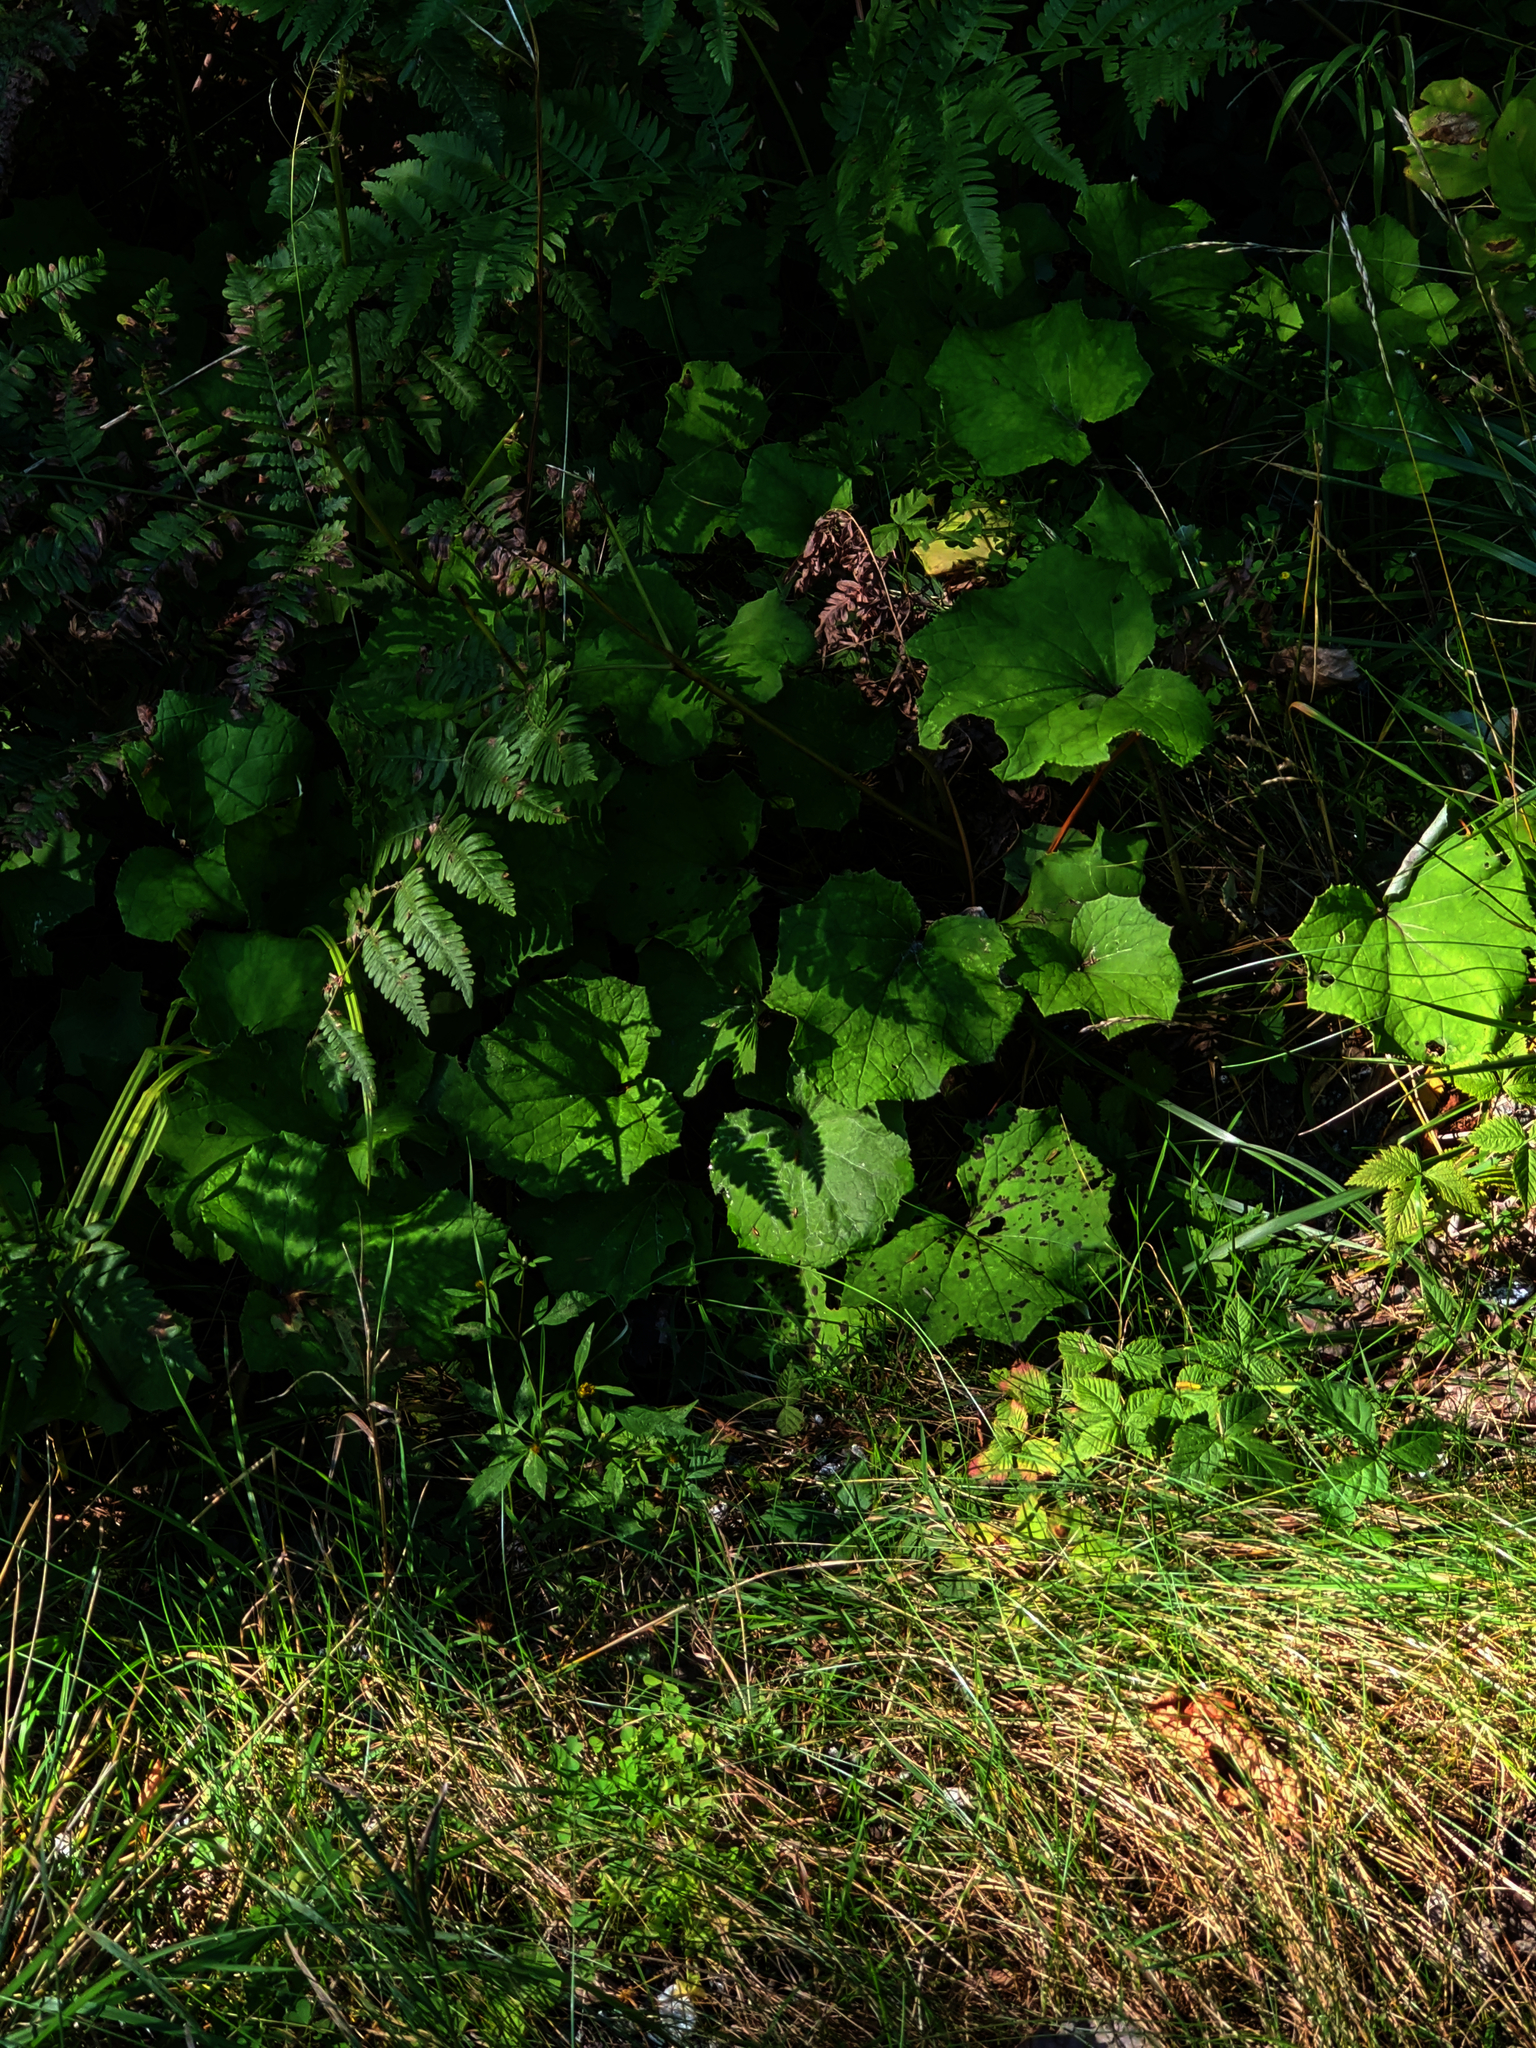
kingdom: Plantae
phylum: Tracheophyta
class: Magnoliopsida
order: Asterales
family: Asteraceae
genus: Tussilago
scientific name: Tussilago farfara
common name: Coltsfoot
